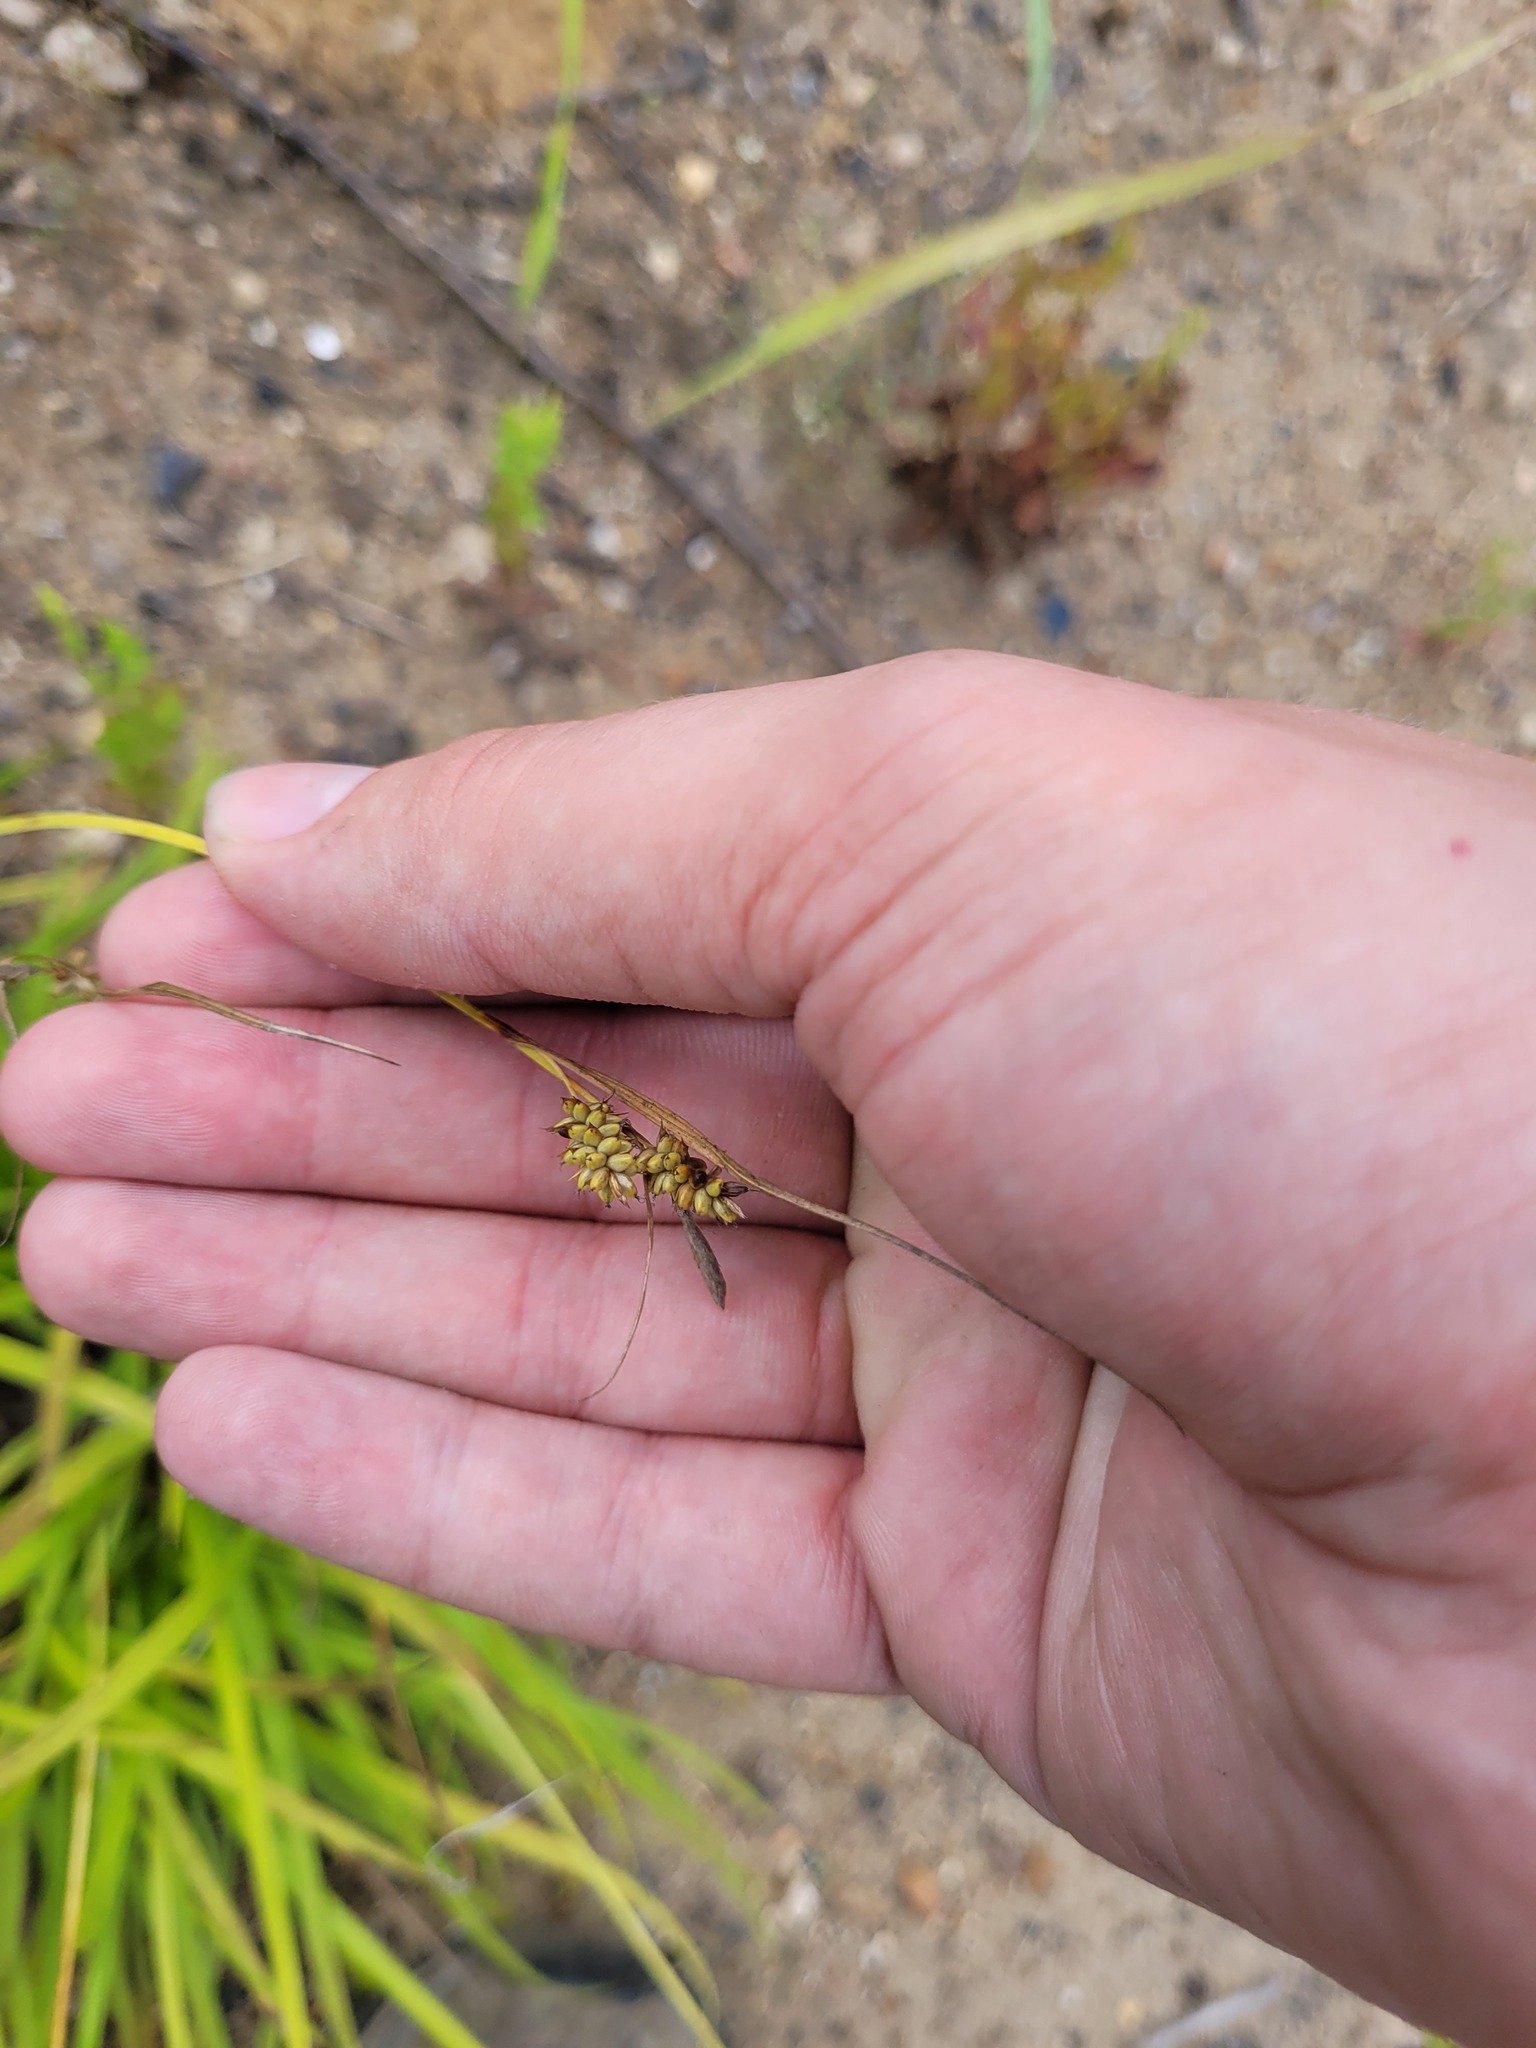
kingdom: Plantae
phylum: Tracheophyta
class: Liliopsida
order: Poales
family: Cyperaceae
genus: Carex
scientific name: Carex pallescens
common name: Pale sedge
